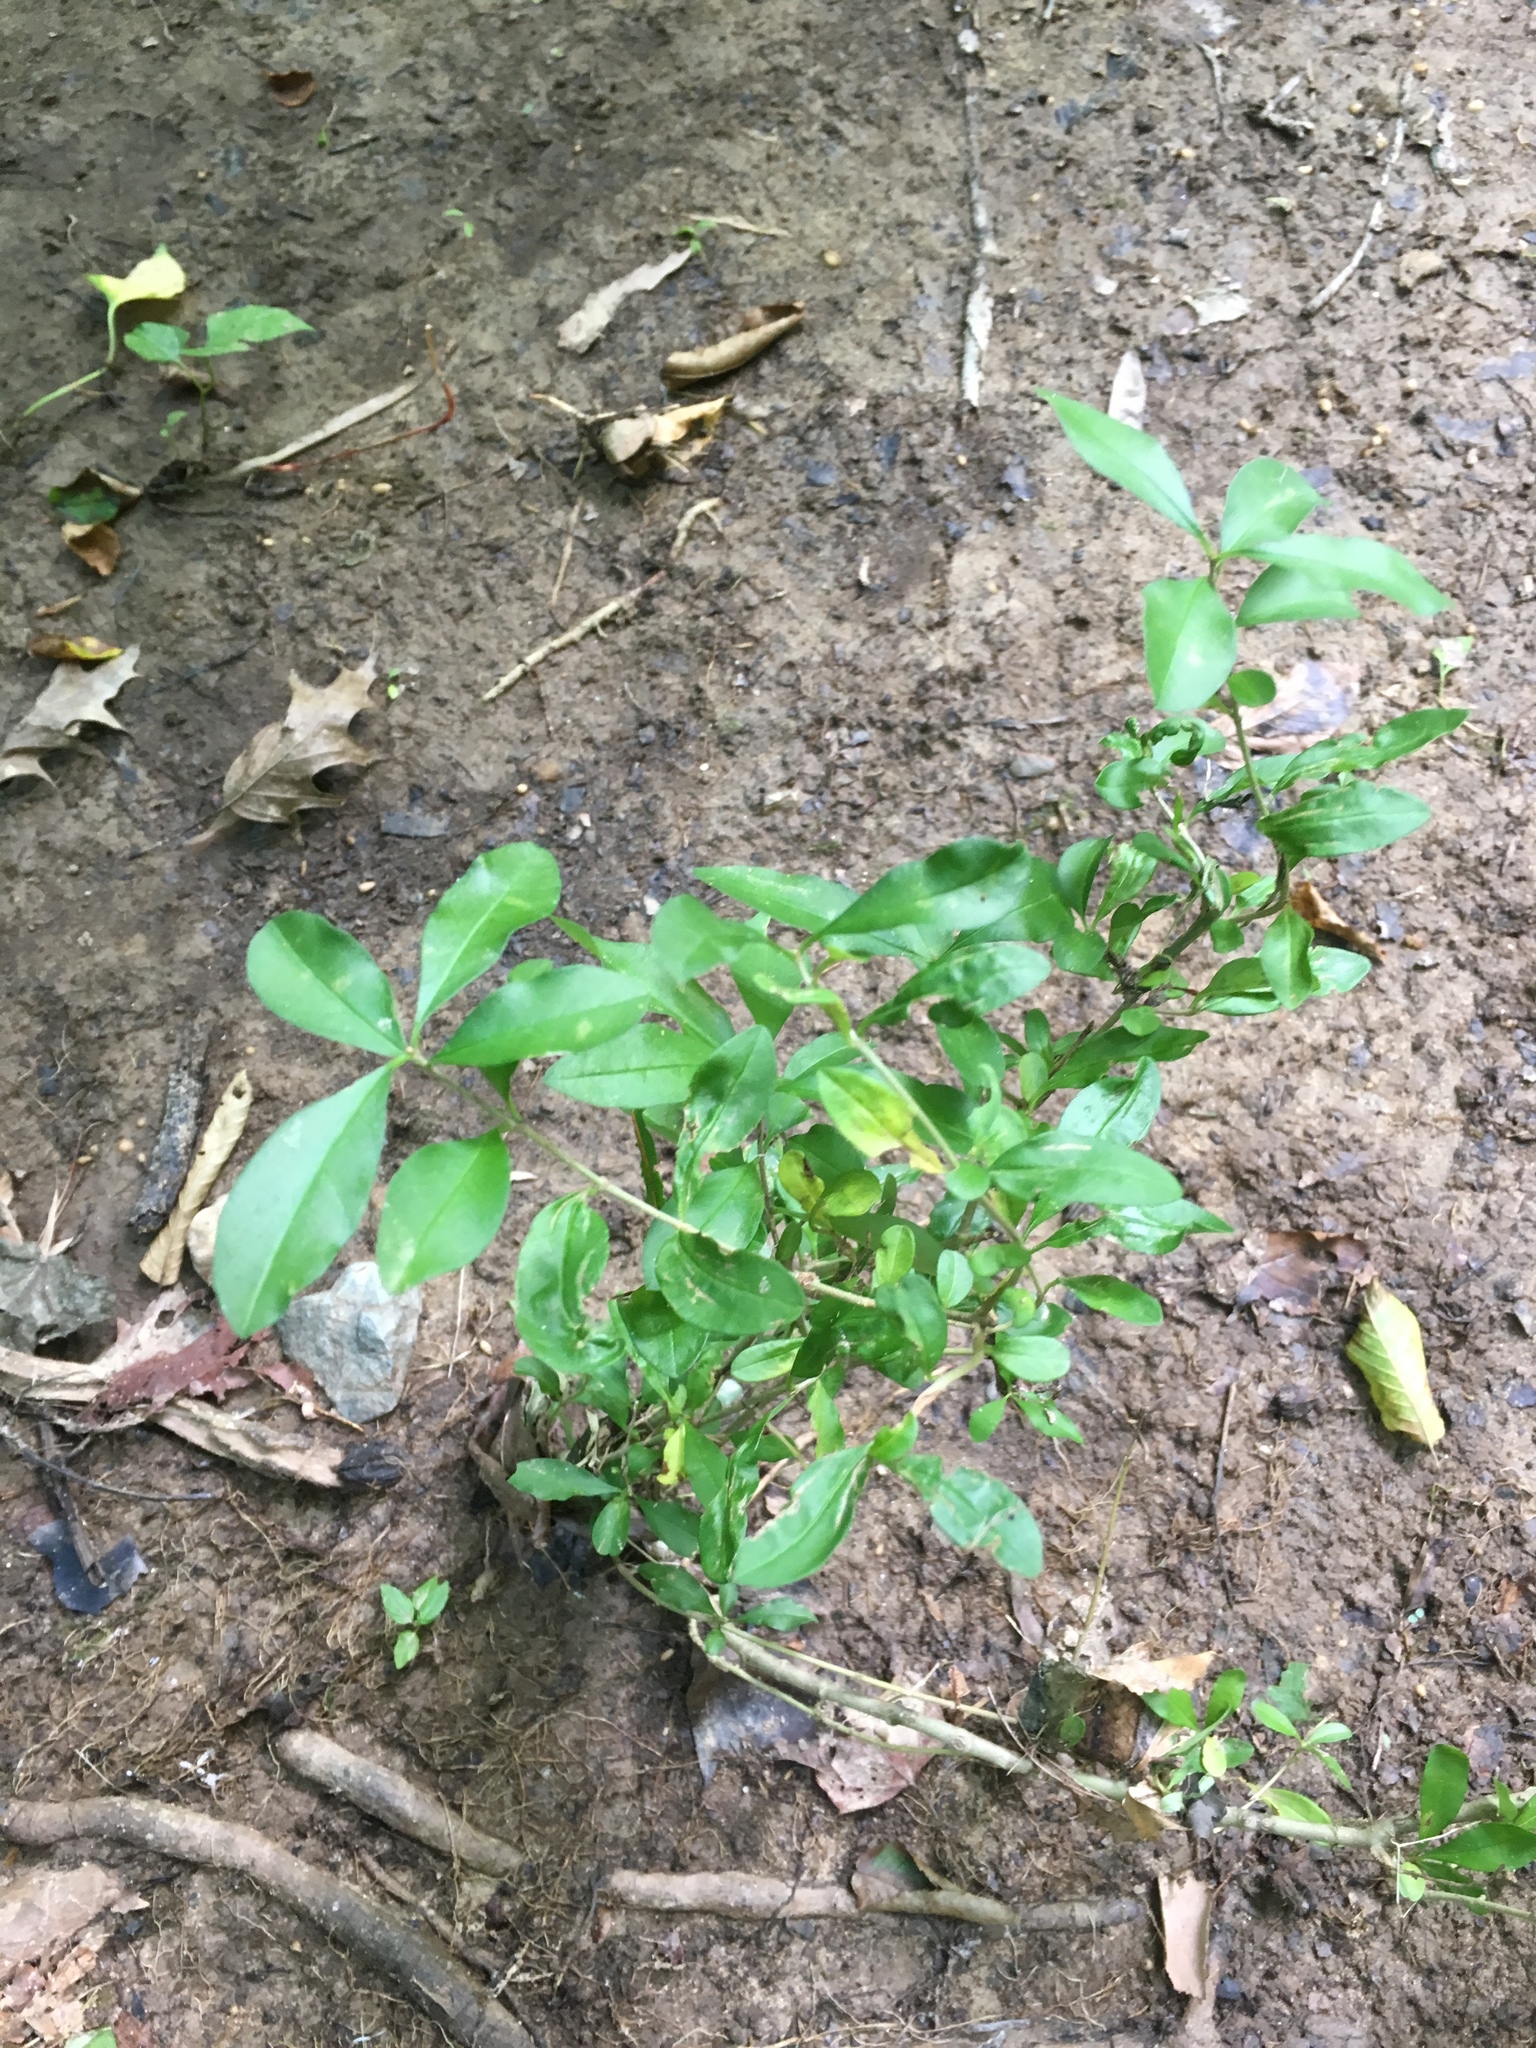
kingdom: Plantae
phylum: Tracheophyta
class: Magnoliopsida
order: Lamiales
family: Oleaceae
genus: Ligustrum
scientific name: Ligustrum sinense
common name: Chinese privet
